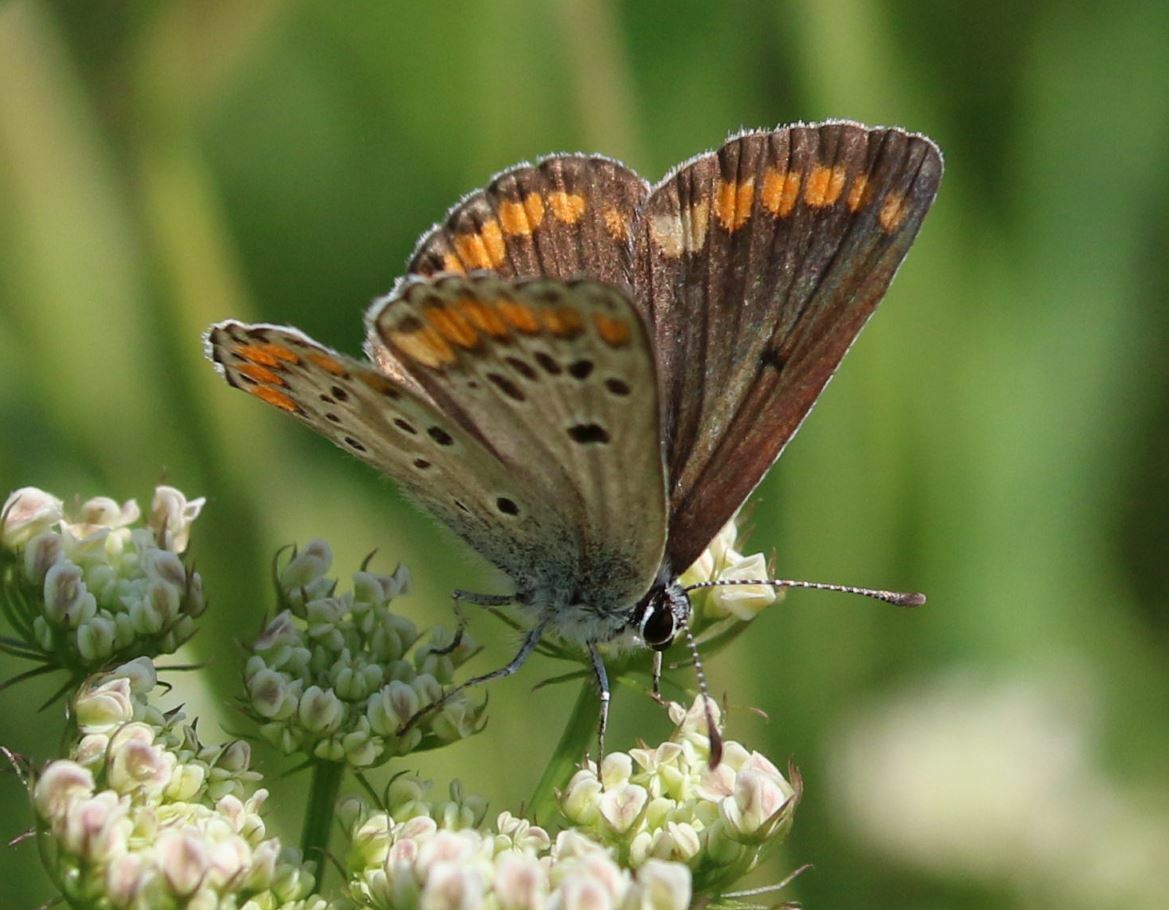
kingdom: Animalia
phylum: Arthropoda
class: Insecta
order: Lepidoptera
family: Lycaenidae
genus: Aricia
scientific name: Aricia agestis
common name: Brown argus
